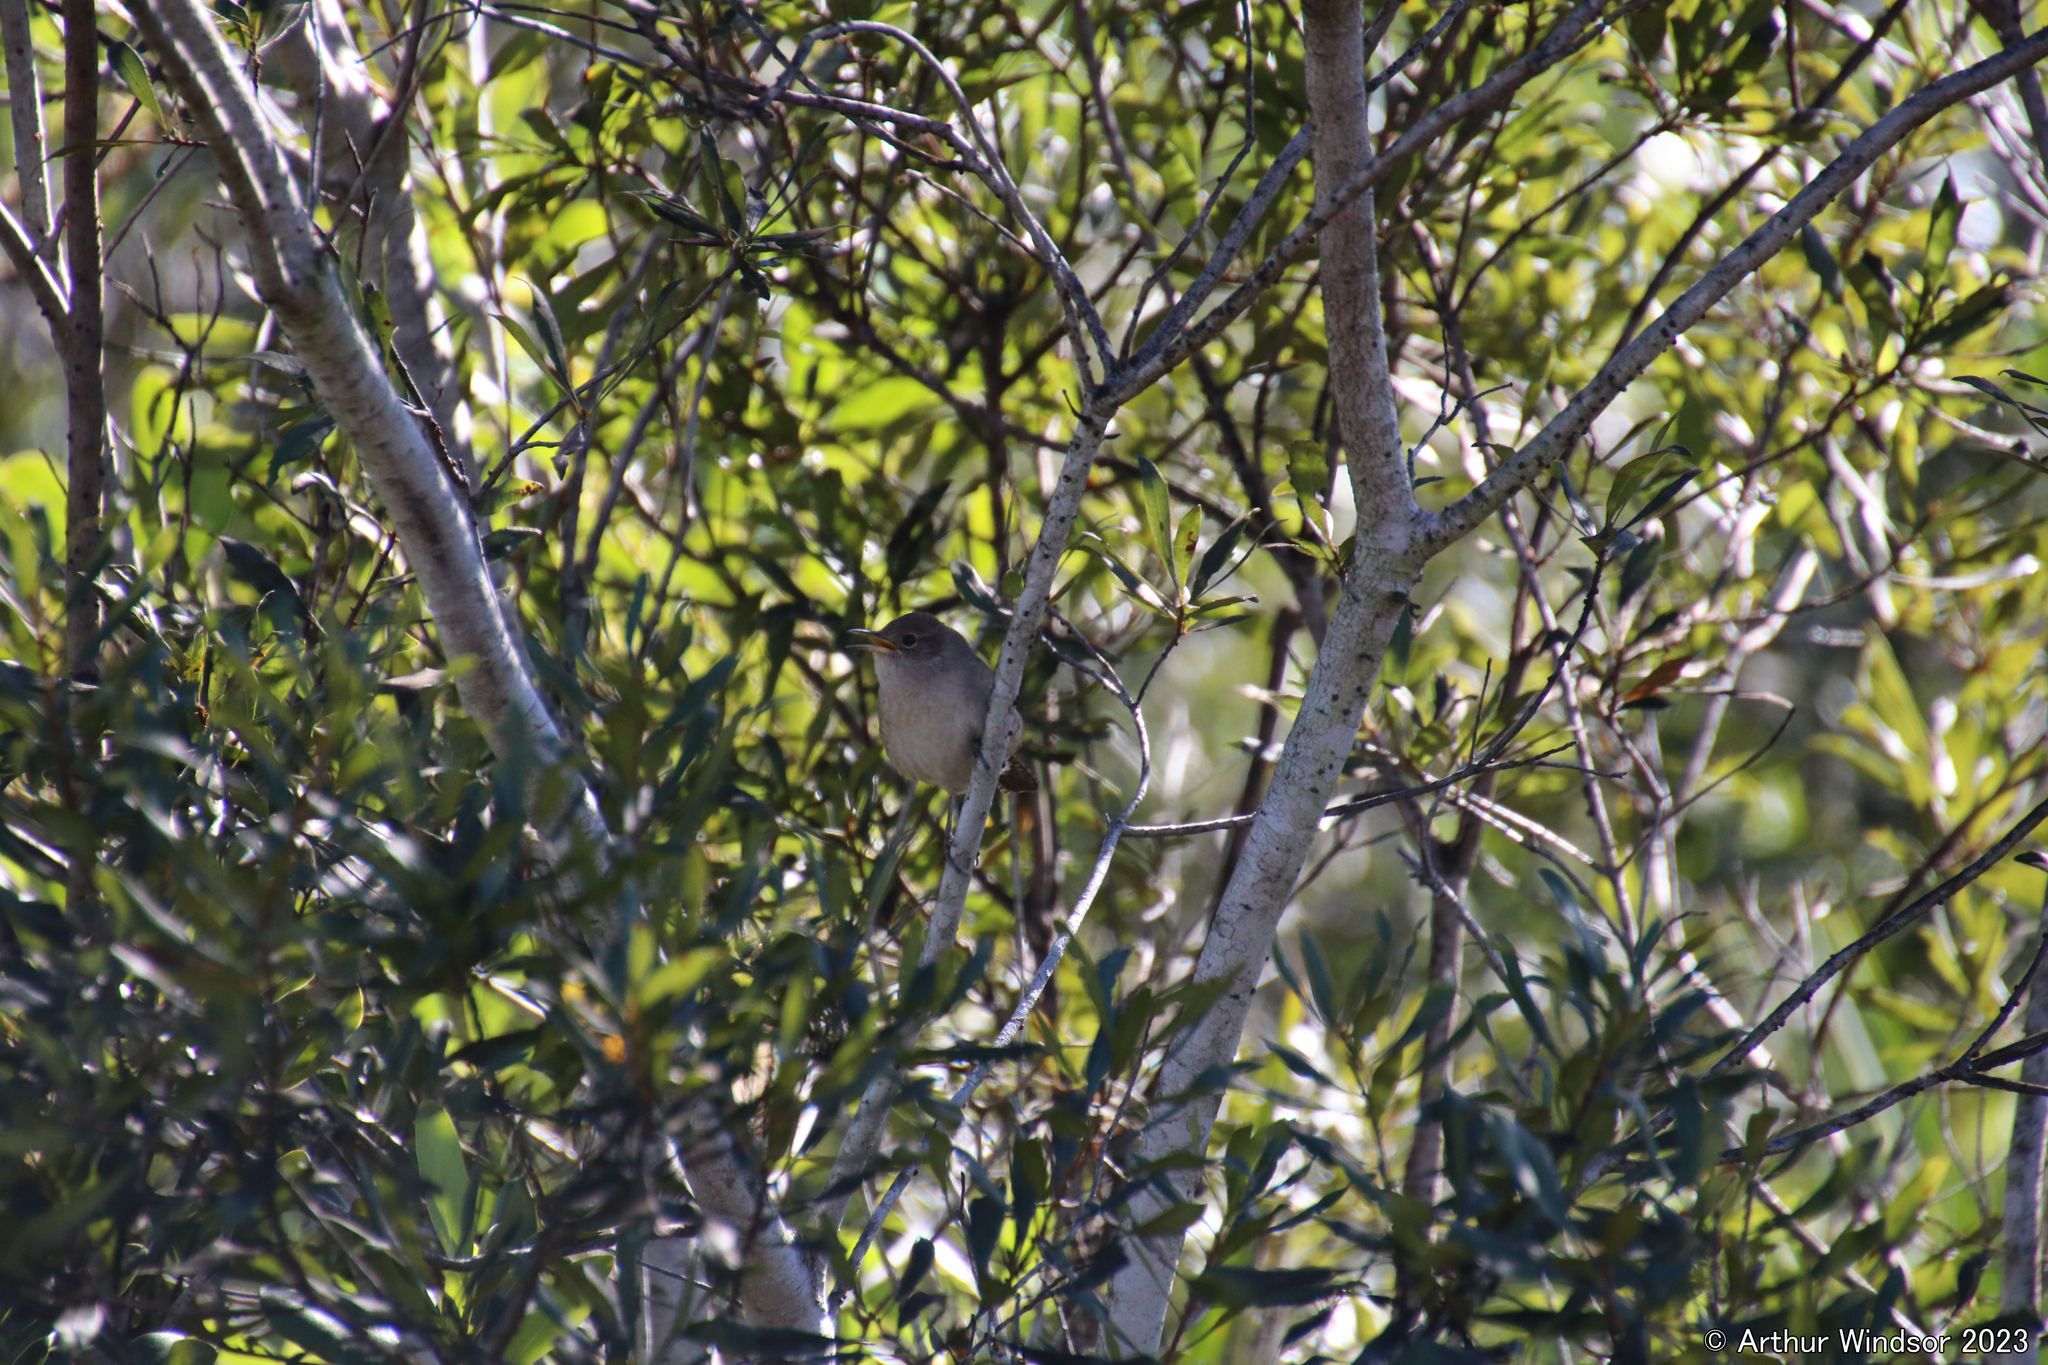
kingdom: Animalia
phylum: Chordata
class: Aves
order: Passeriformes
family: Troglodytidae
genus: Troglodytes
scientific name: Troglodytes aedon
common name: House wren
